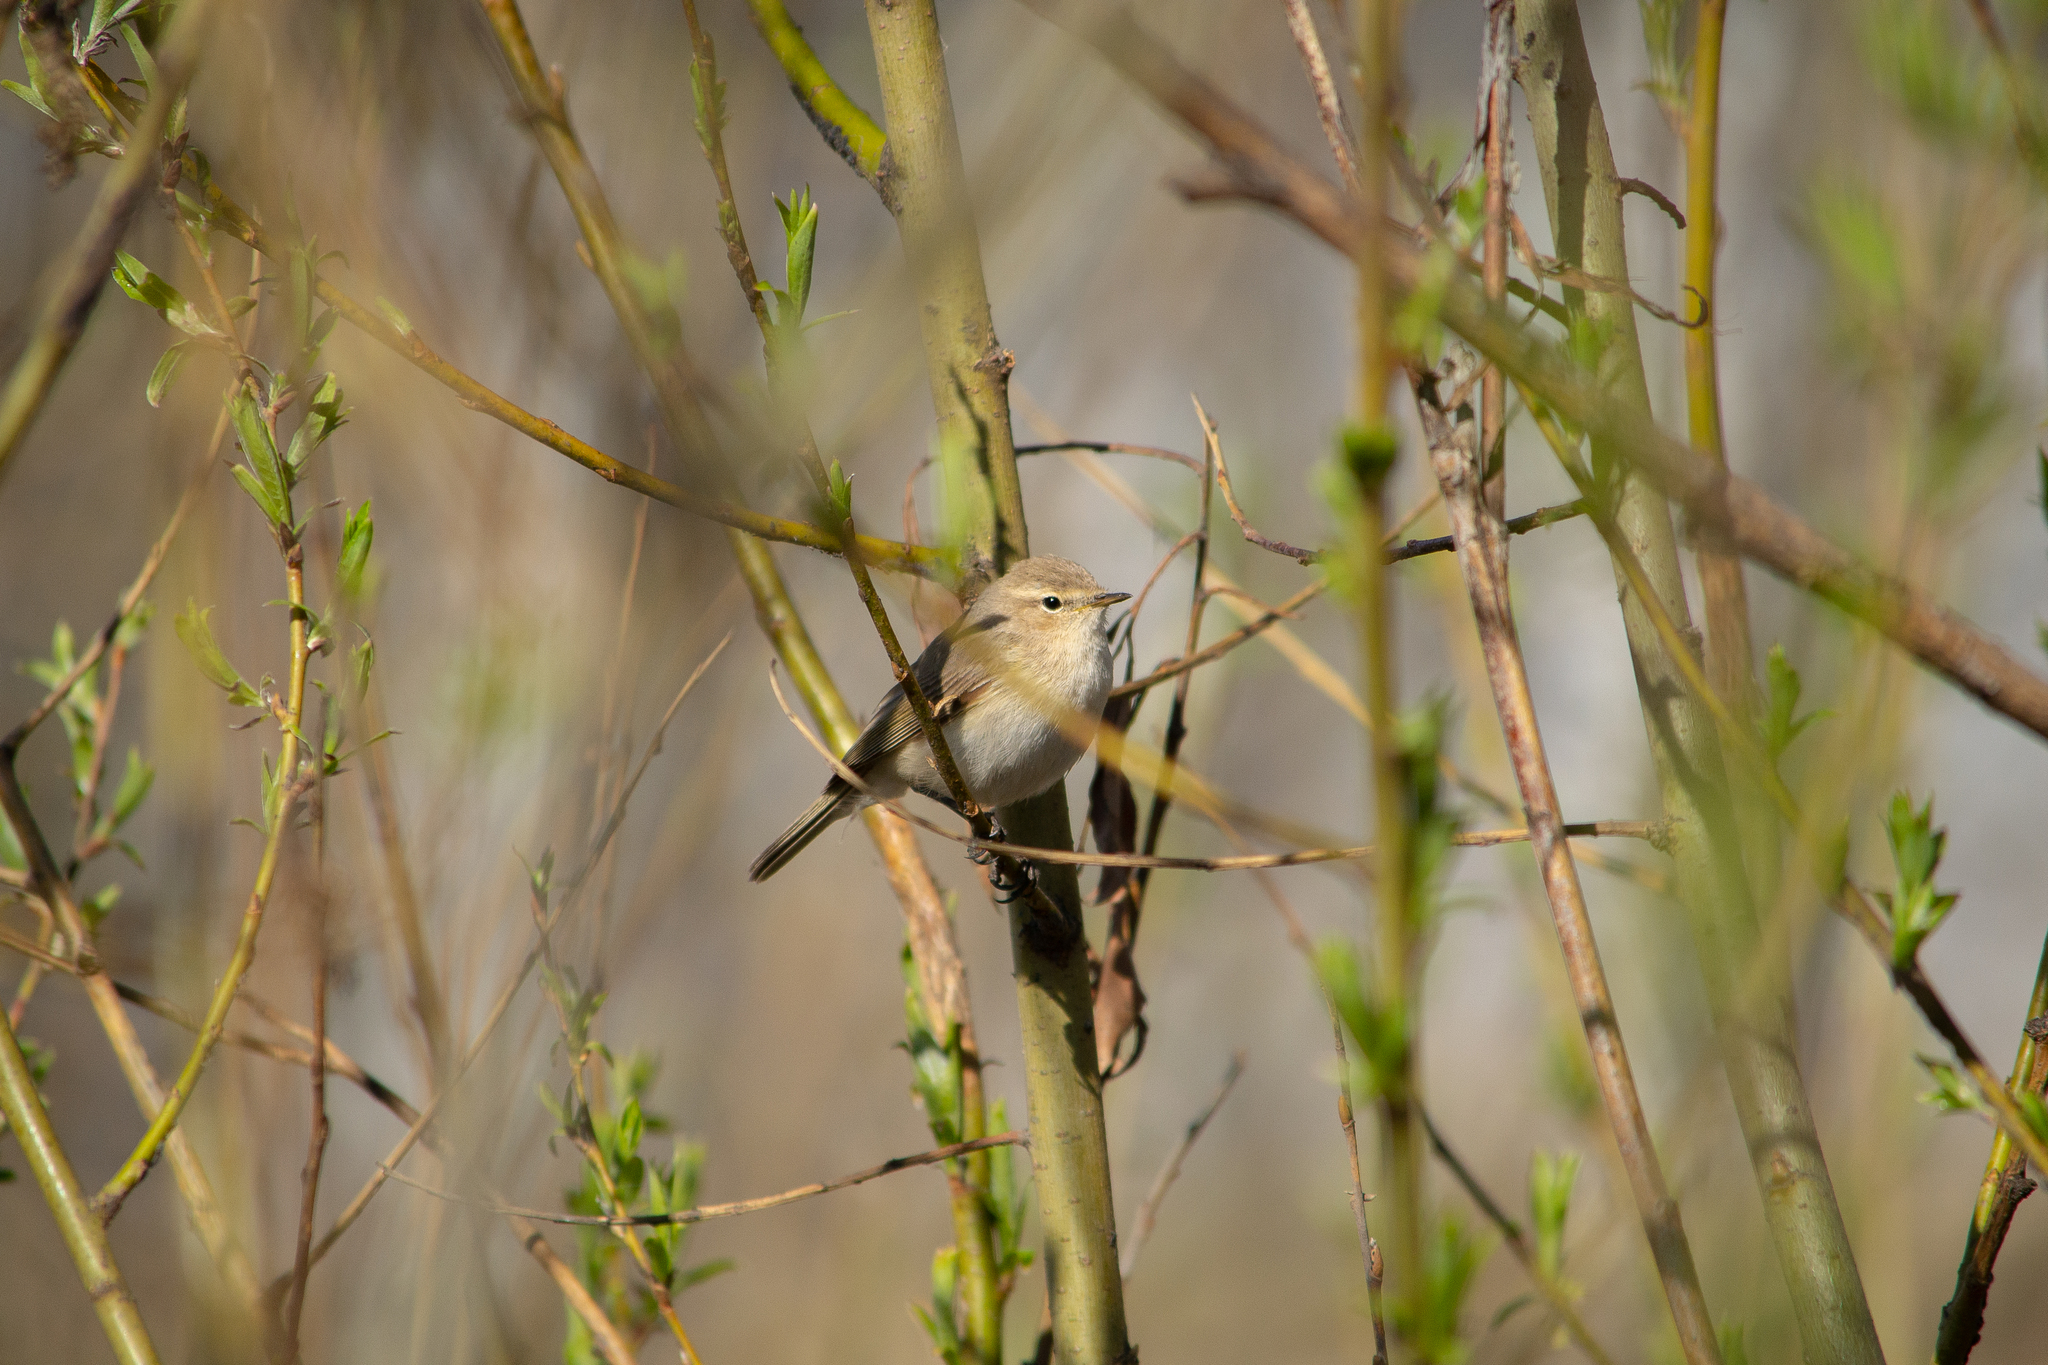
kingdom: Animalia
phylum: Chordata
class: Aves
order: Passeriformes
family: Phylloscopidae
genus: Phylloscopus
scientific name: Phylloscopus collybita
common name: Common chiffchaff
